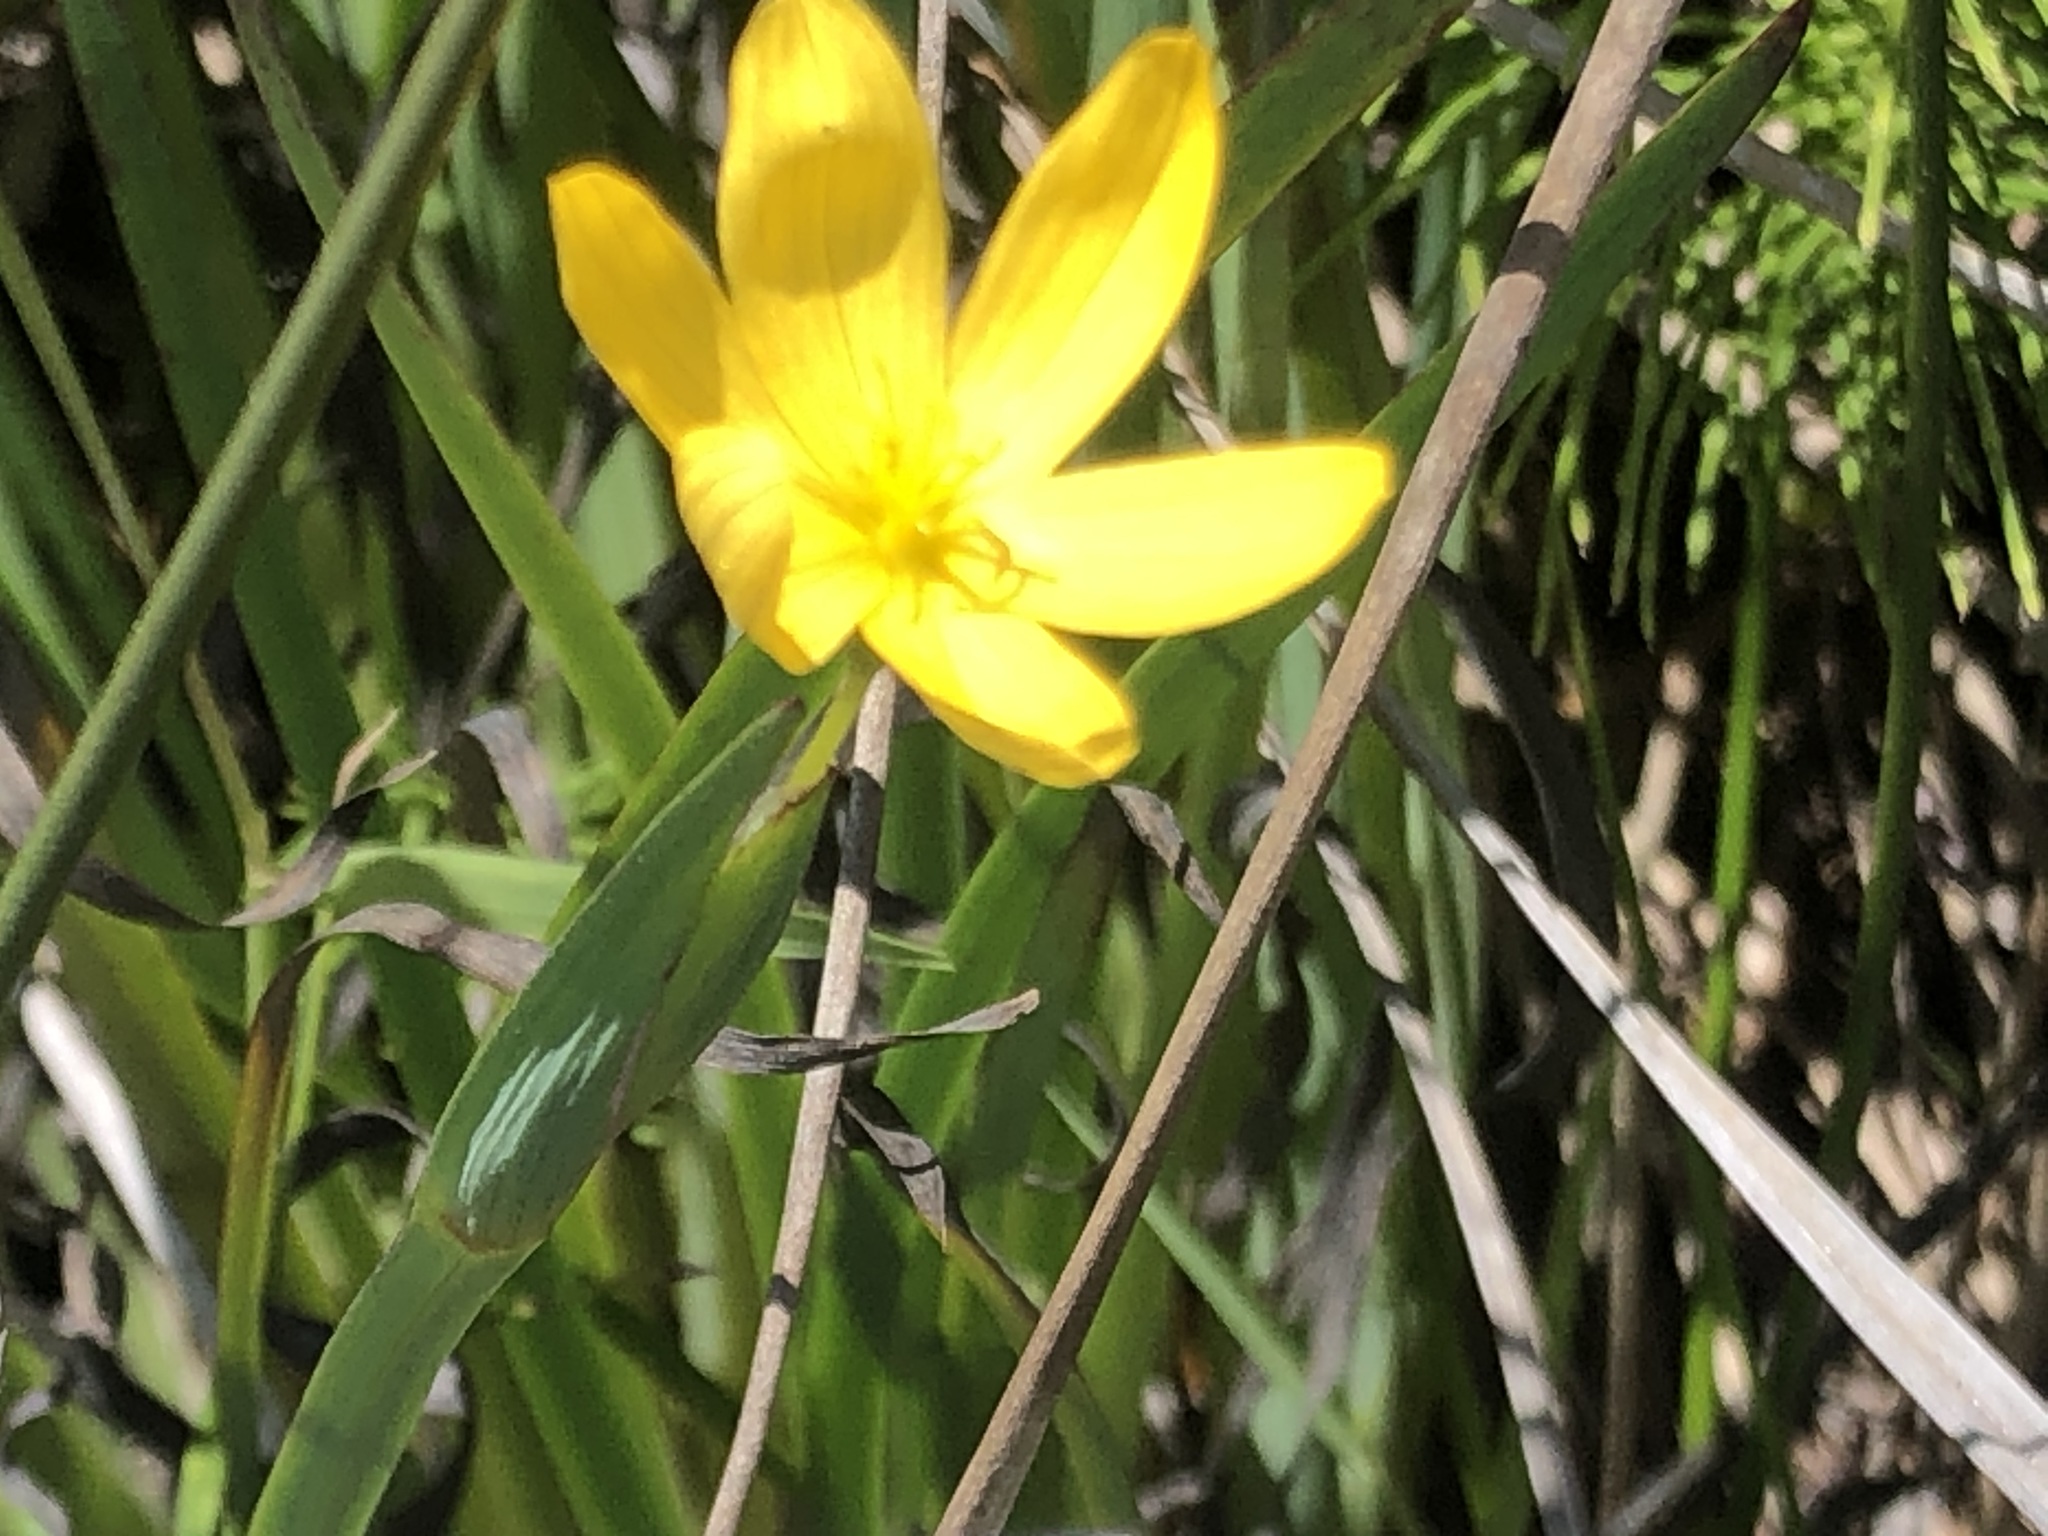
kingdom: Plantae
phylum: Tracheophyta
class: Liliopsida
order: Asparagales
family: Iridaceae
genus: Sisyrinchium
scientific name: Sisyrinchium californicum
